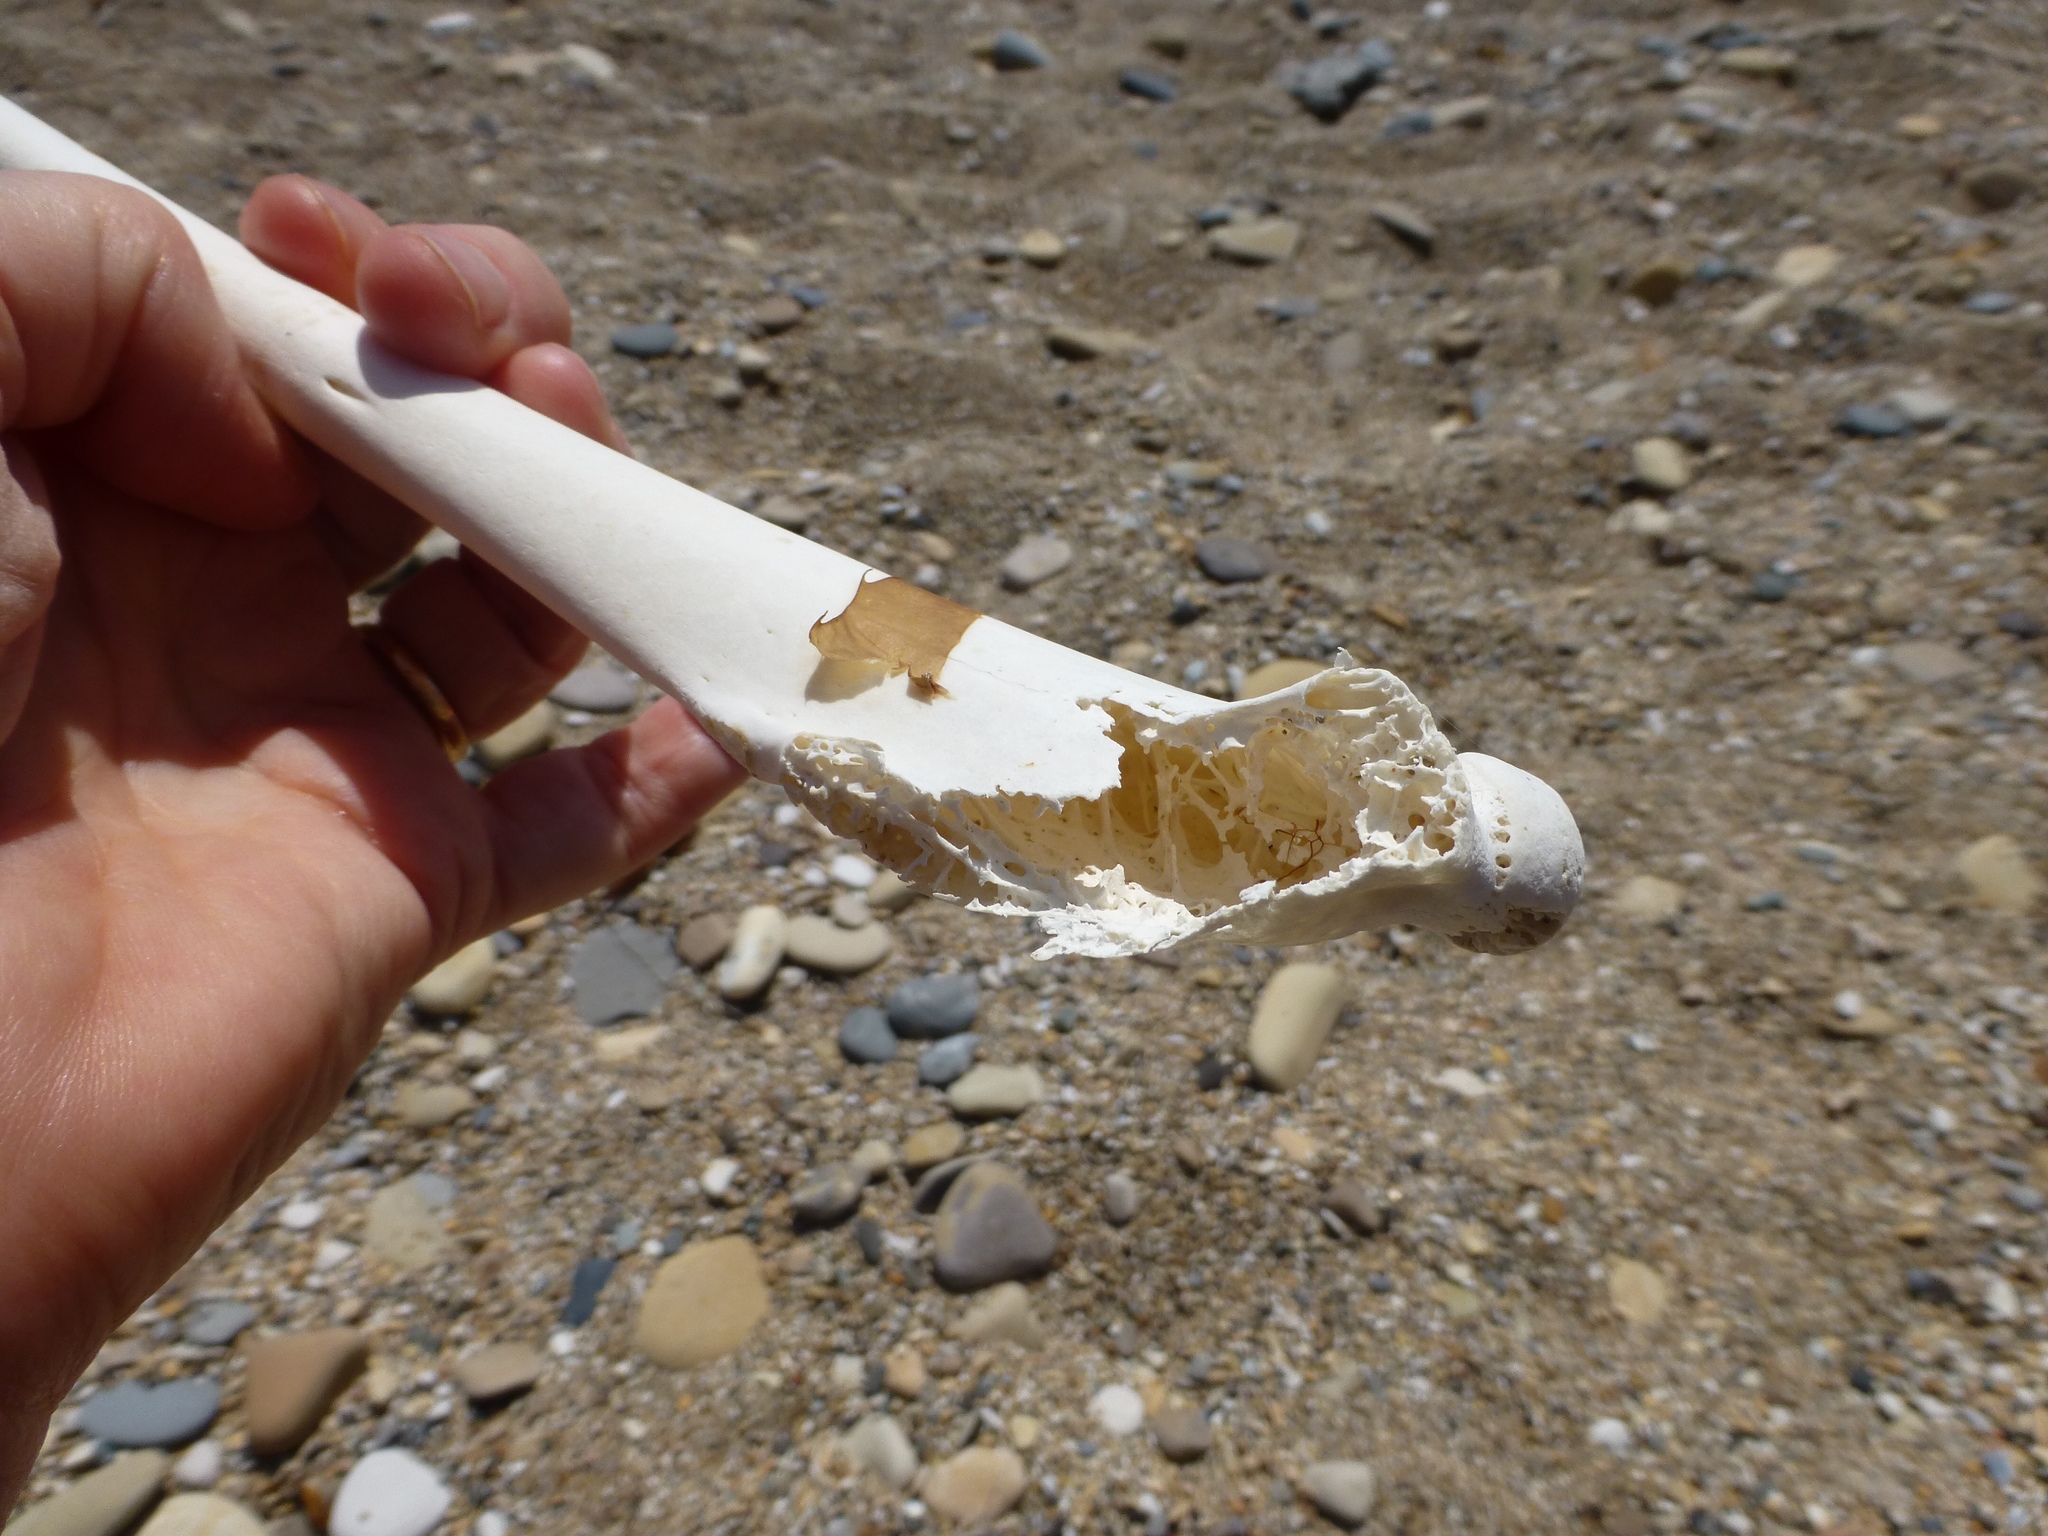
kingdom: Animalia
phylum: Chordata
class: Aves
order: Pelecaniformes
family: Pelecanidae
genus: Pelecanus
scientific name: Pelecanus occidentalis
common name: Brown pelican
